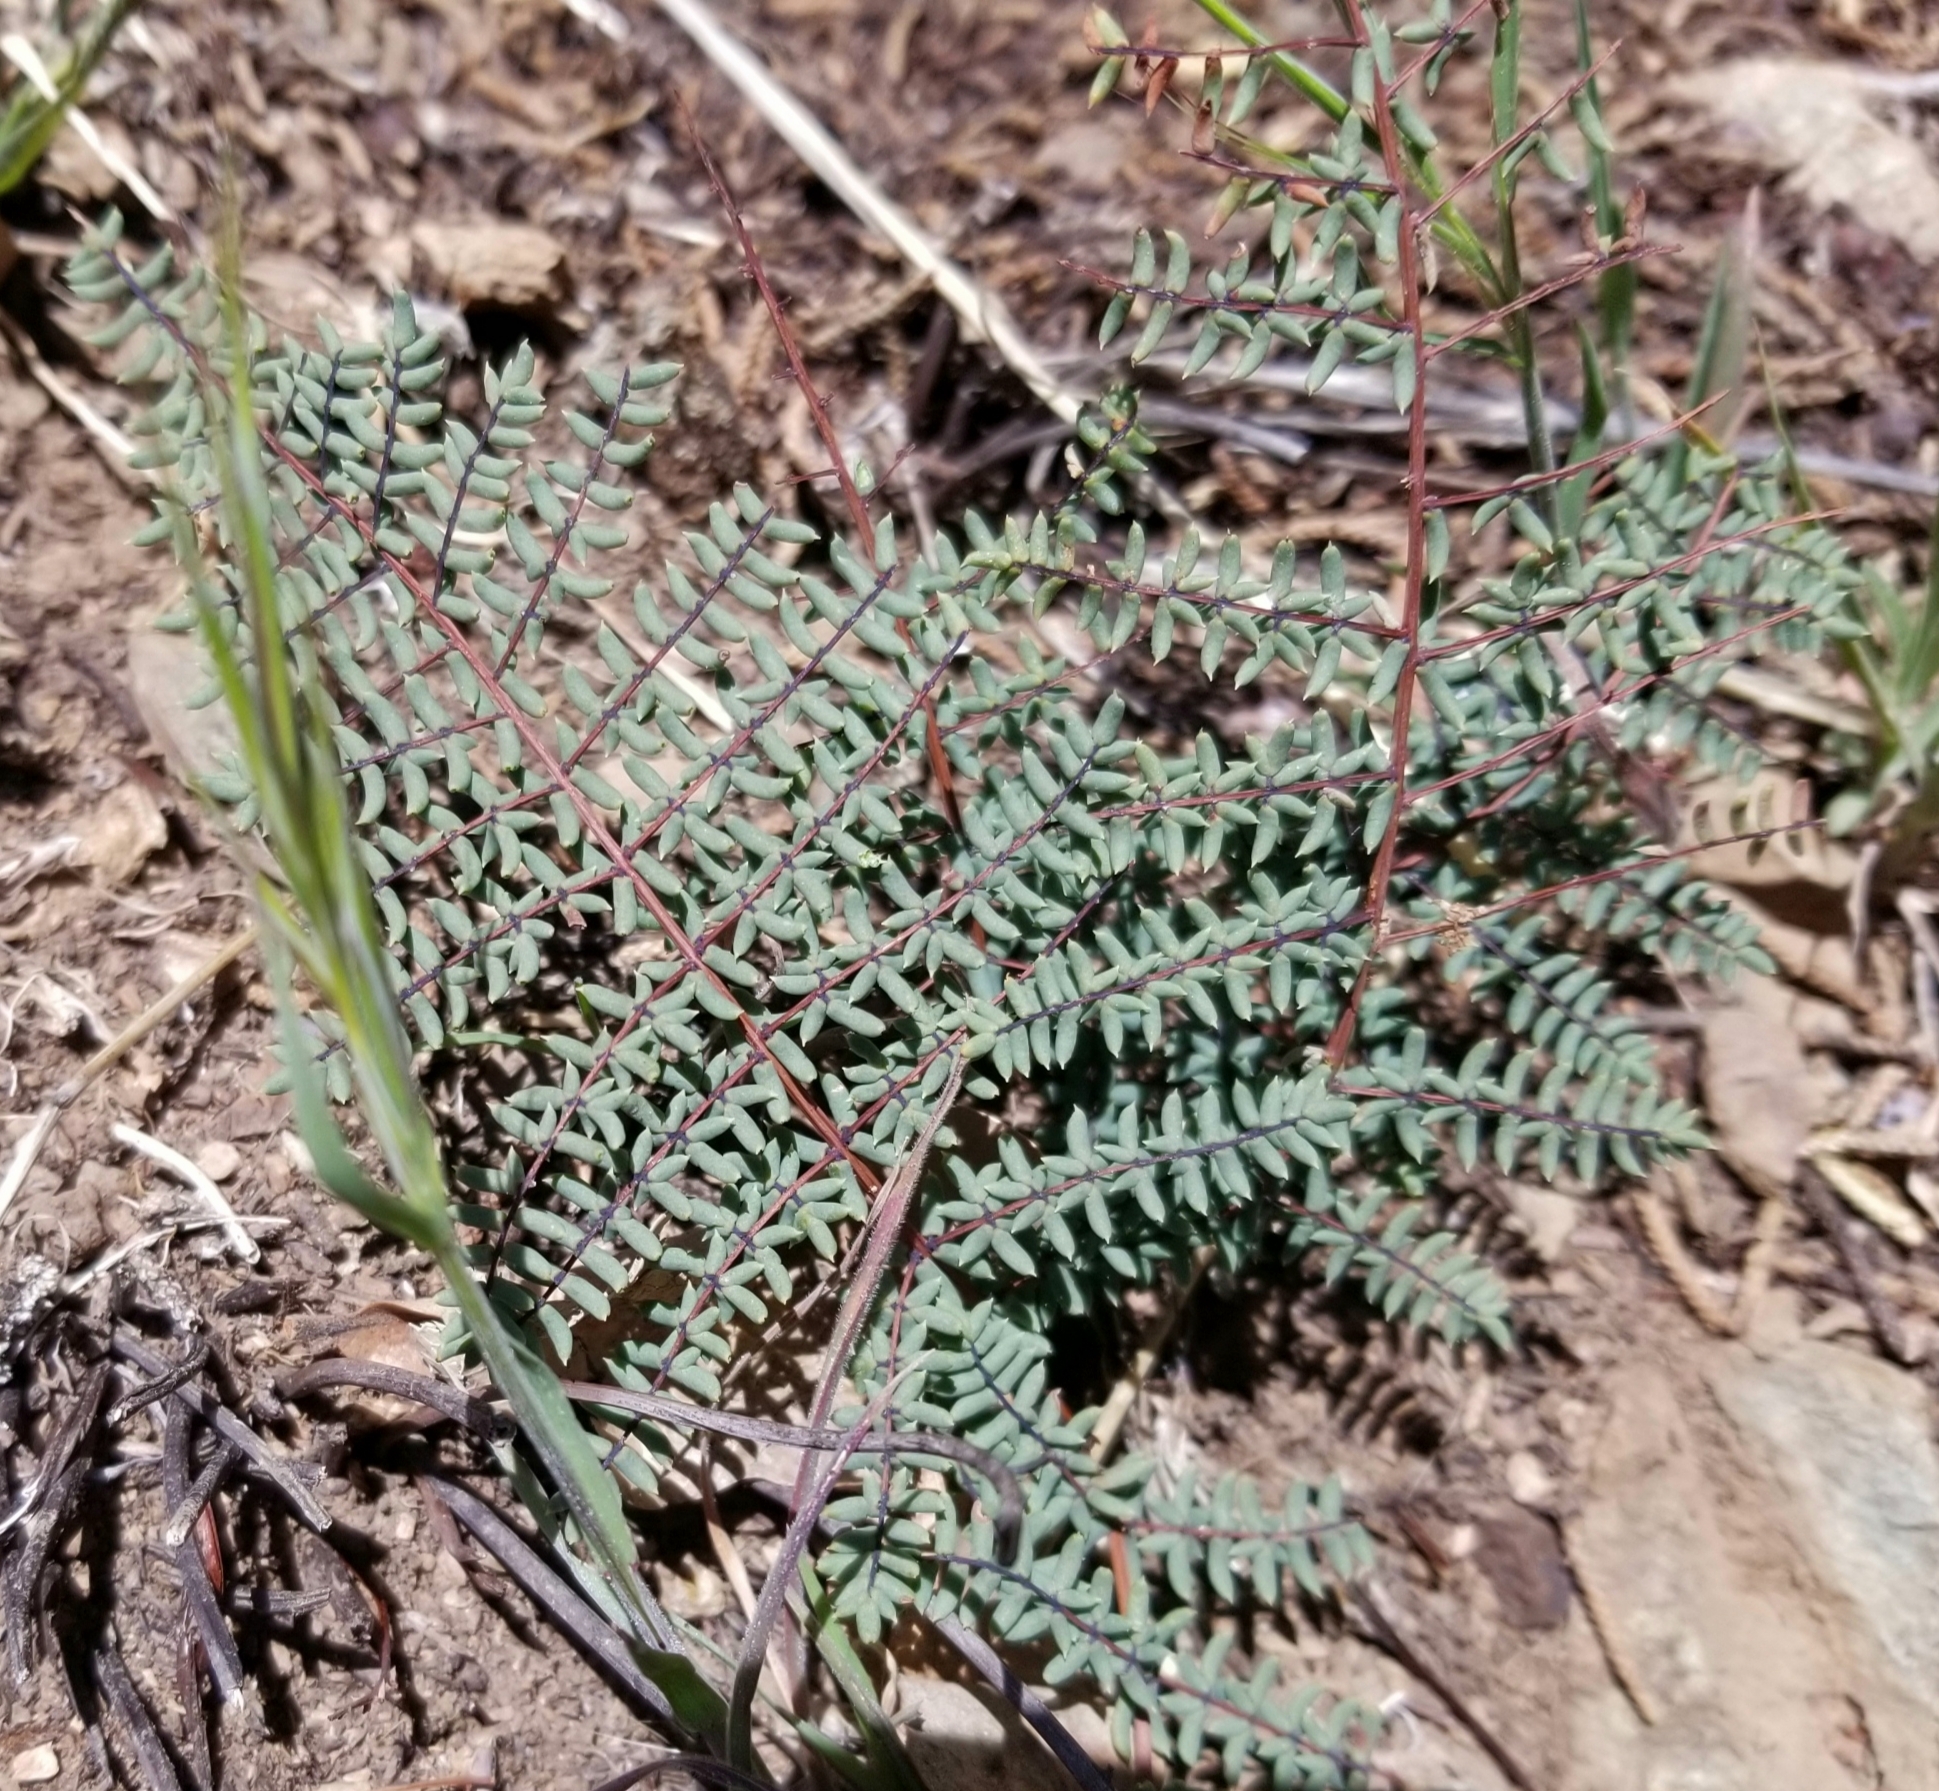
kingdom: Plantae
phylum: Tracheophyta
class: Polypodiopsida
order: Polypodiales
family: Pteridaceae
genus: Pellaea
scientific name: Pellaea mucronata
